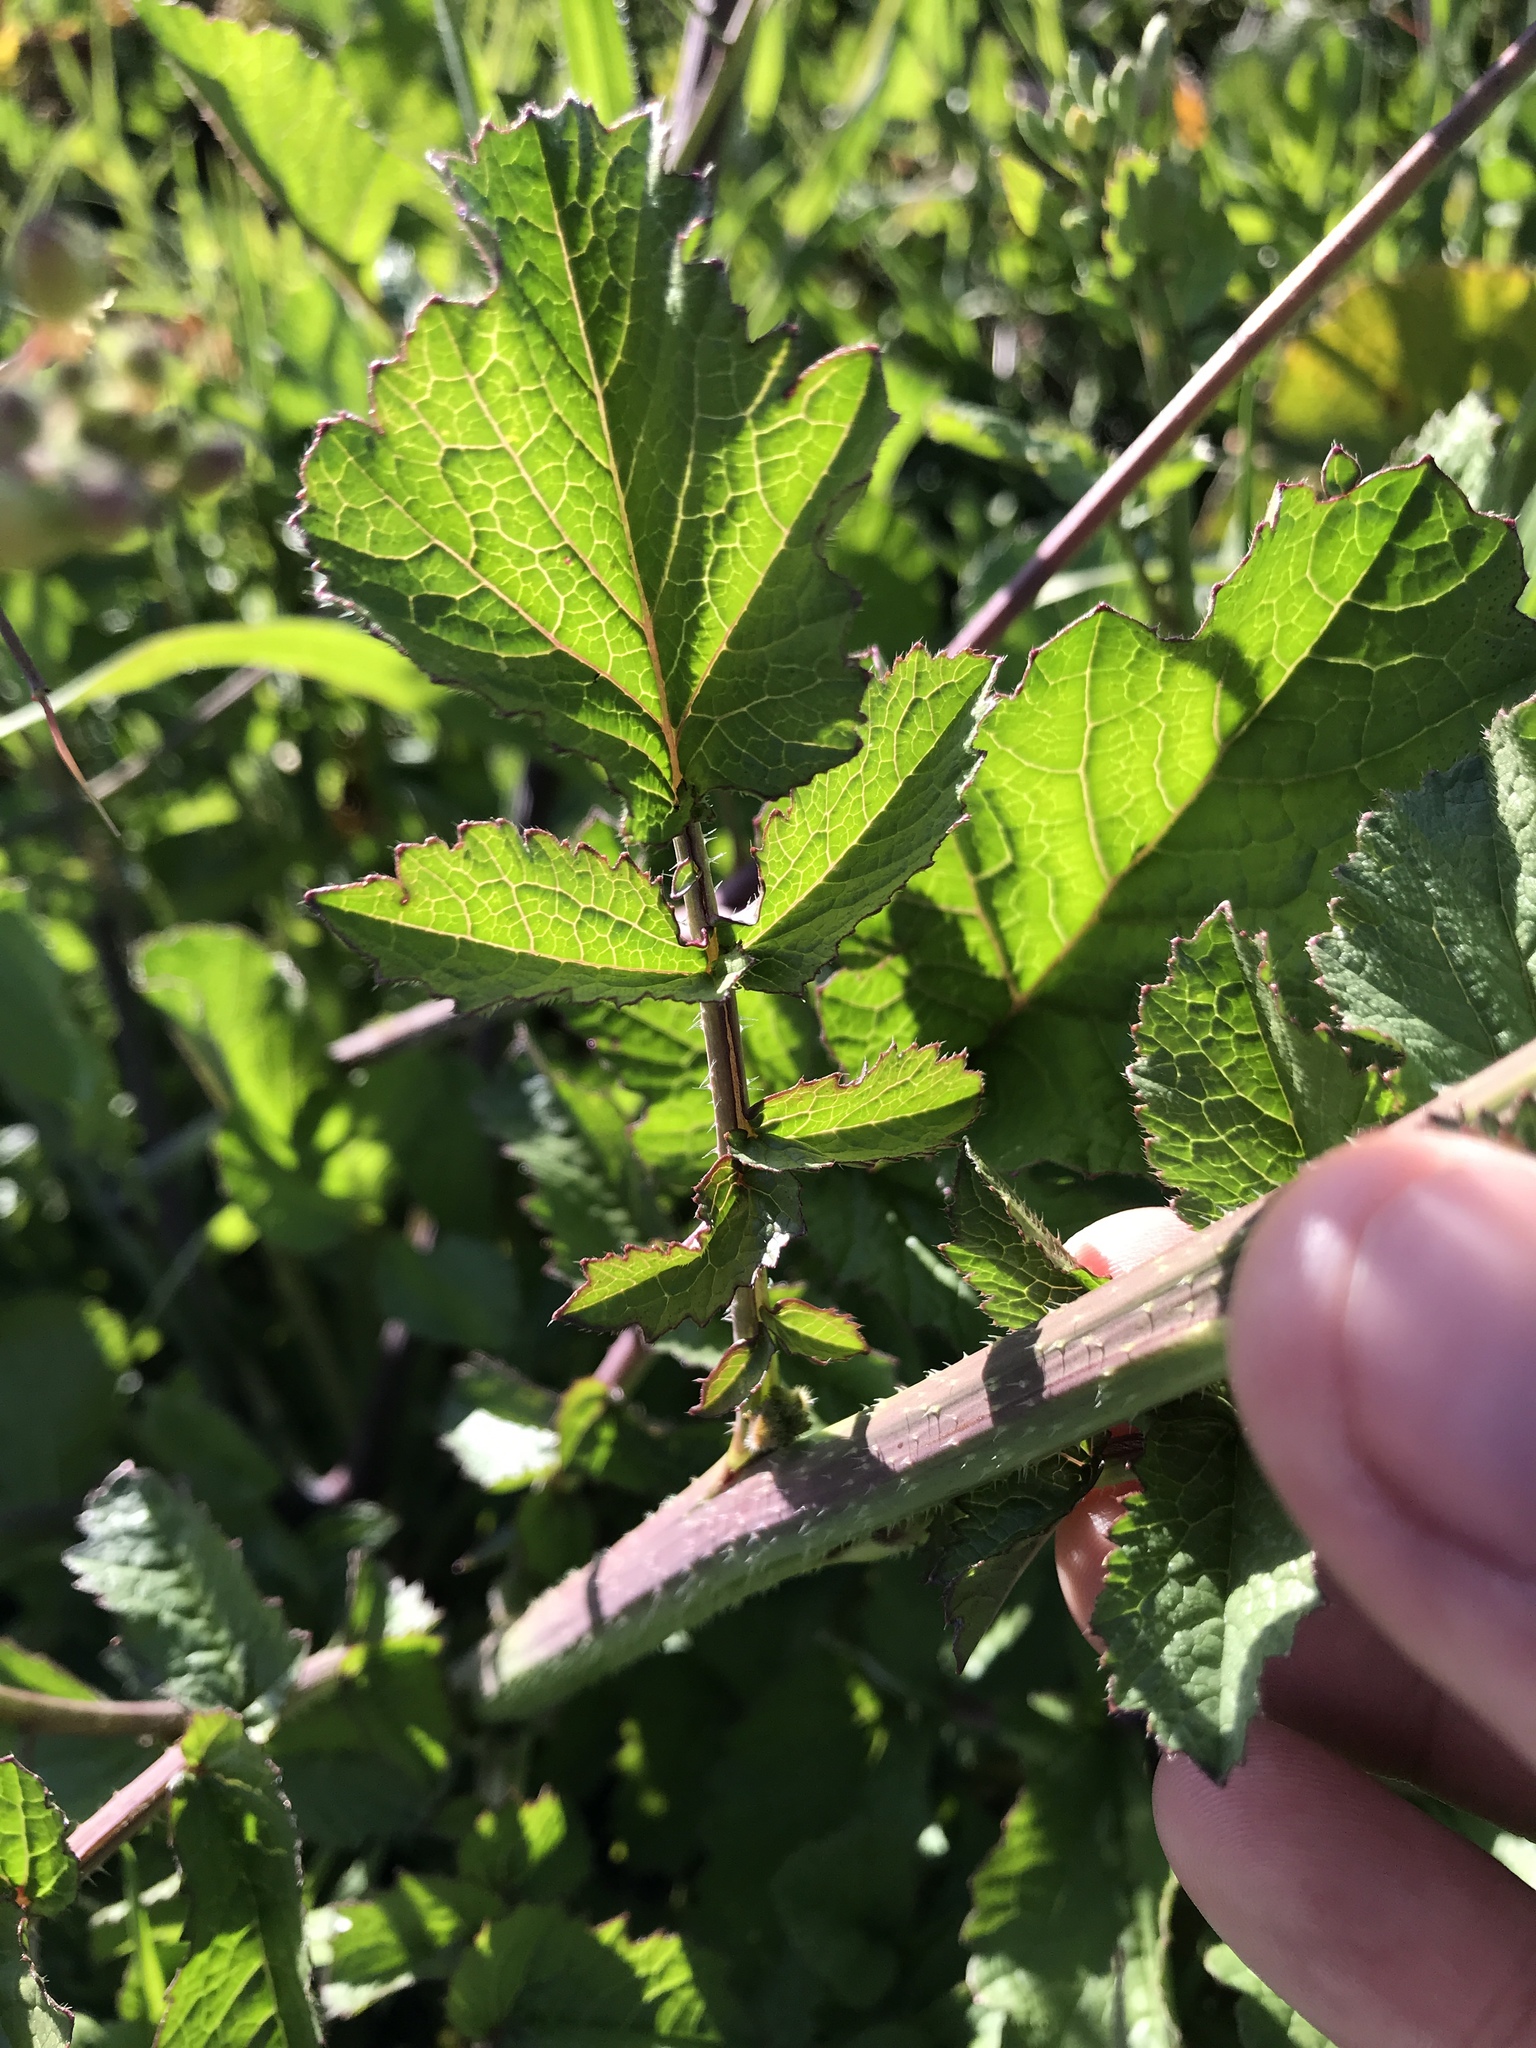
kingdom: Plantae
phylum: Tracheophyta
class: Magnoliopsida
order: Brassicales
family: Brassicaceae
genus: Raphanus
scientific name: Raphanus sativus
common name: Cultivated radish
